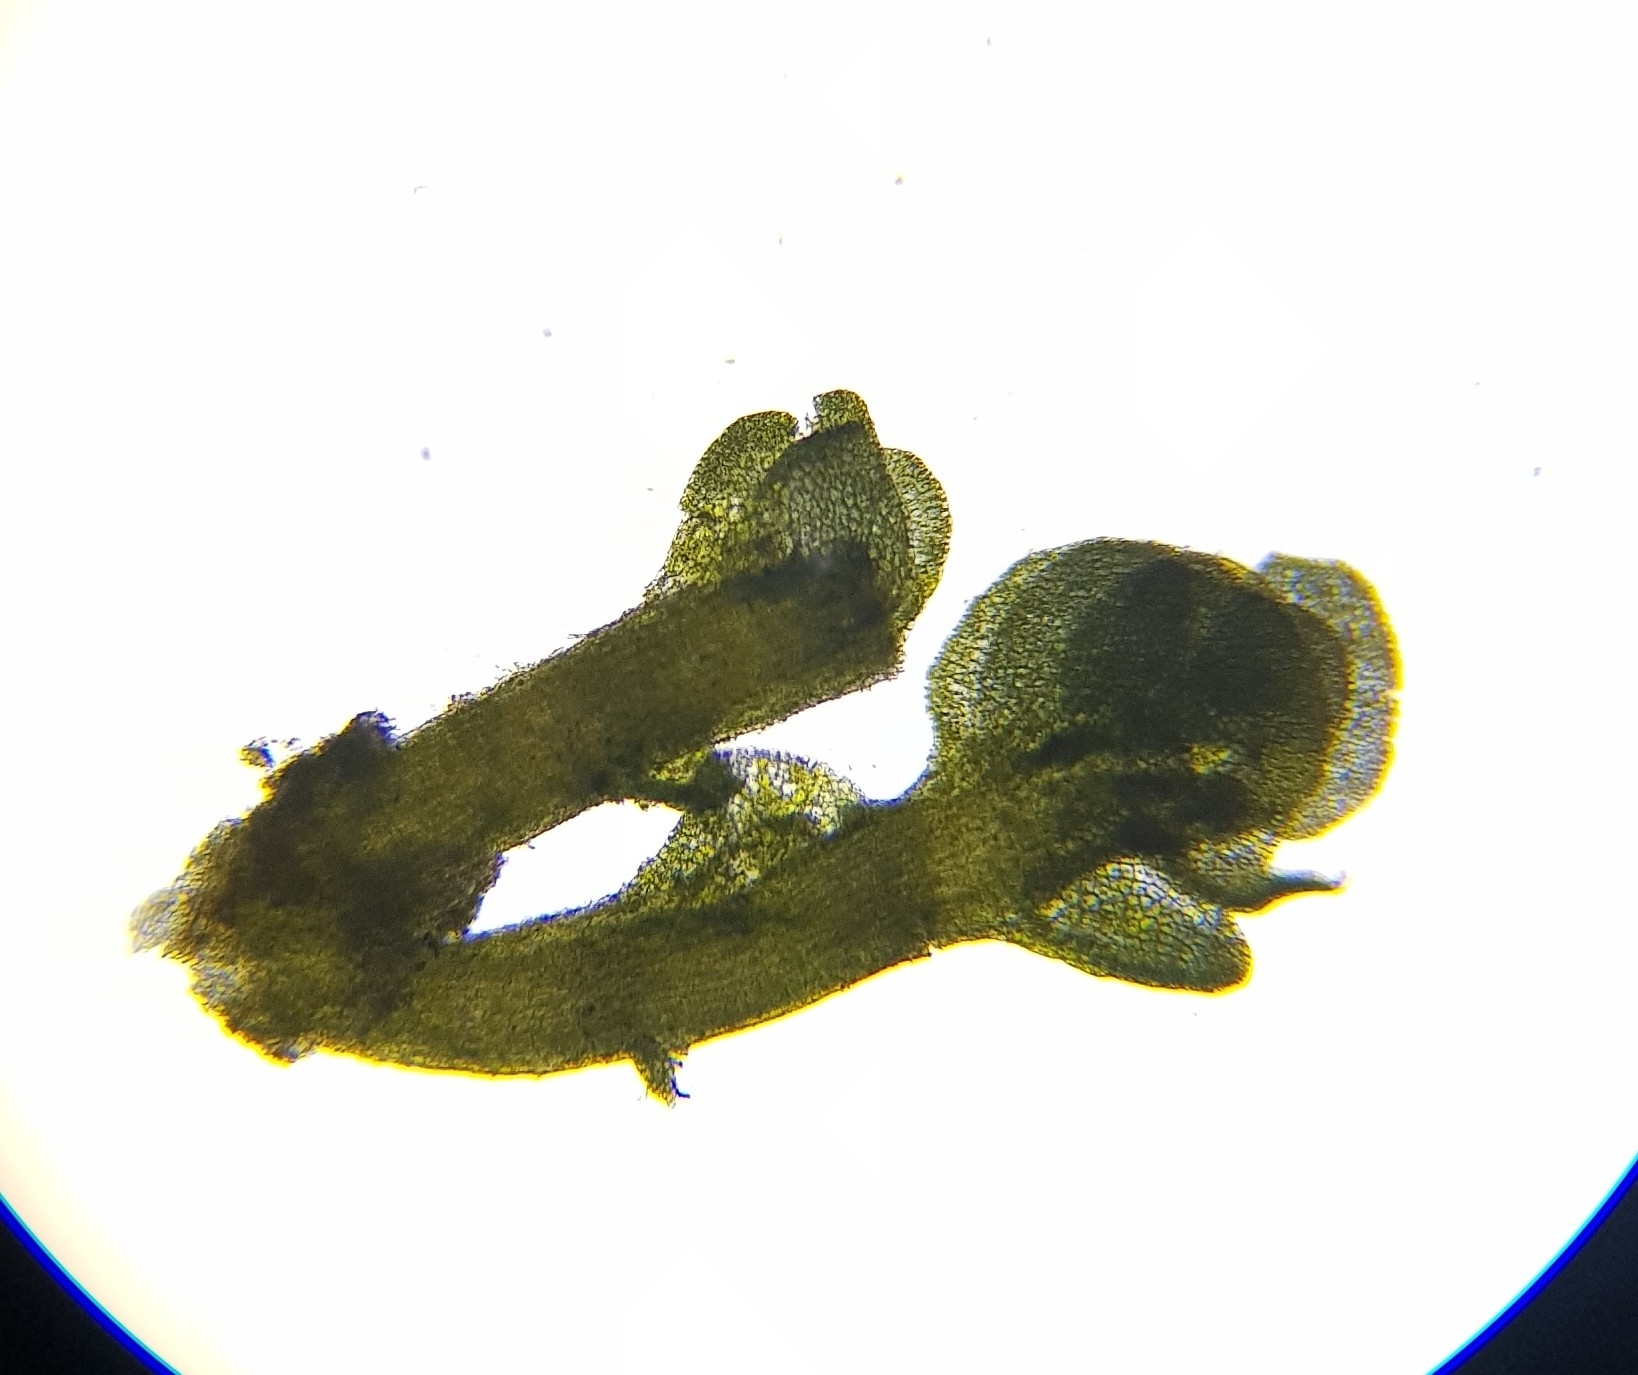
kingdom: Plantae
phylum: Marchantiophyta
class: Jungermanniopsida
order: Jungermanniales
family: Gymnomitriaceae
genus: Nardia
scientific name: Nardia compressa
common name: Compressed flapwort
